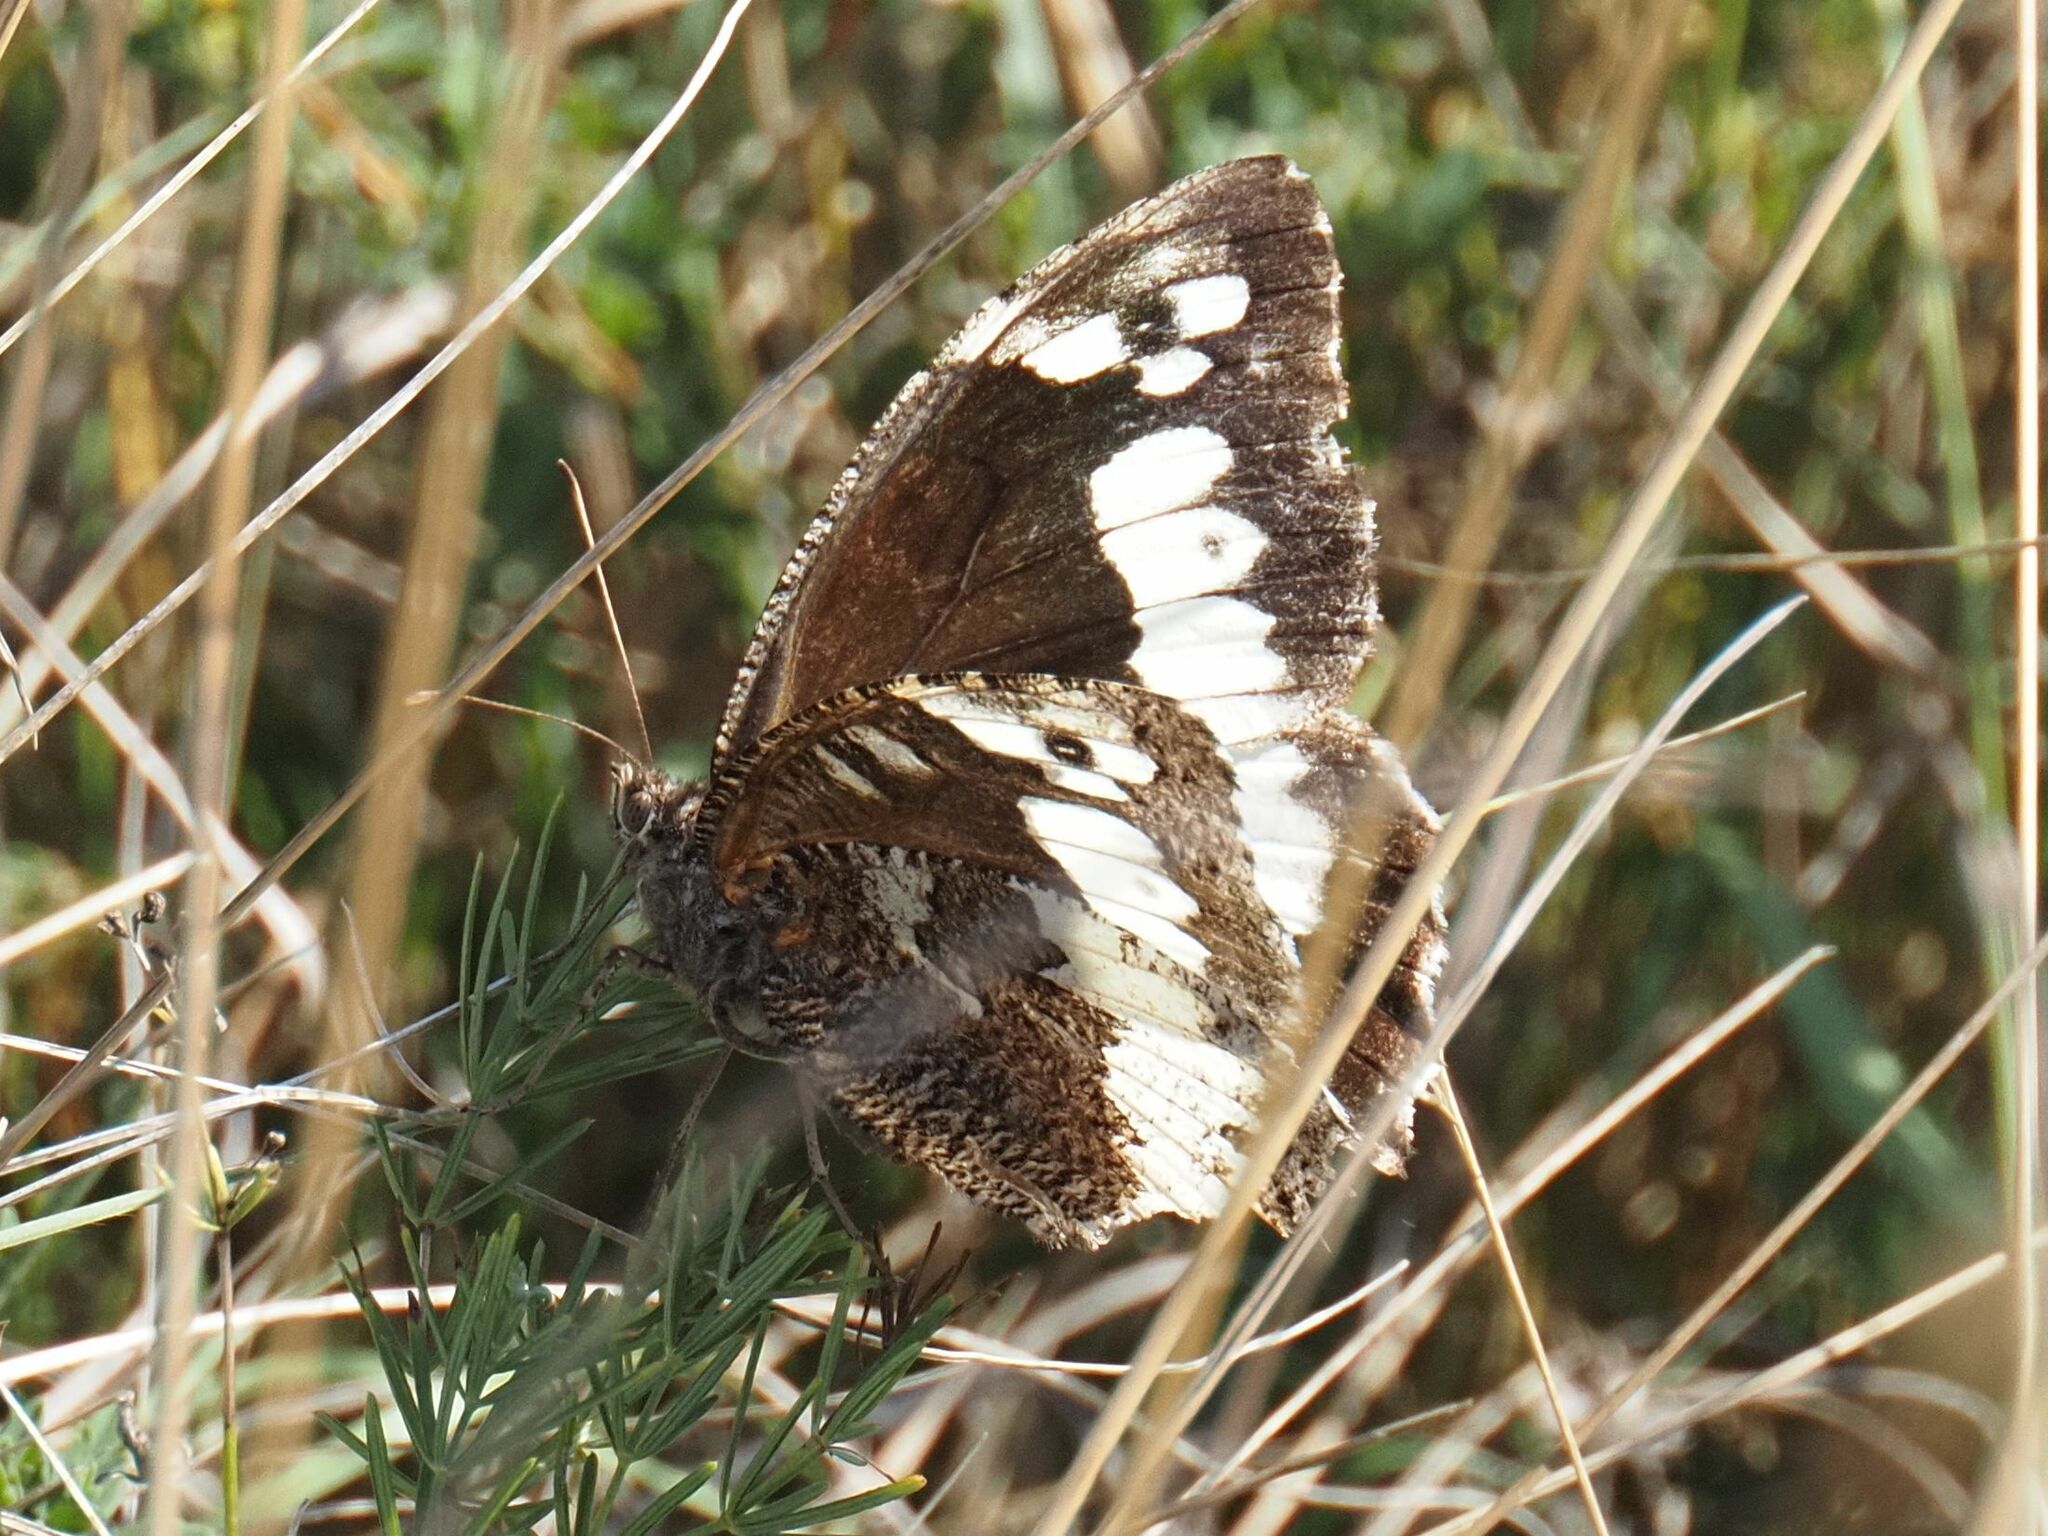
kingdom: Animalia
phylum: Arthropoda
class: Insecta
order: Lepidoptera
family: Lycaenidae
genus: Loweia
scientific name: Loweia tityrus
